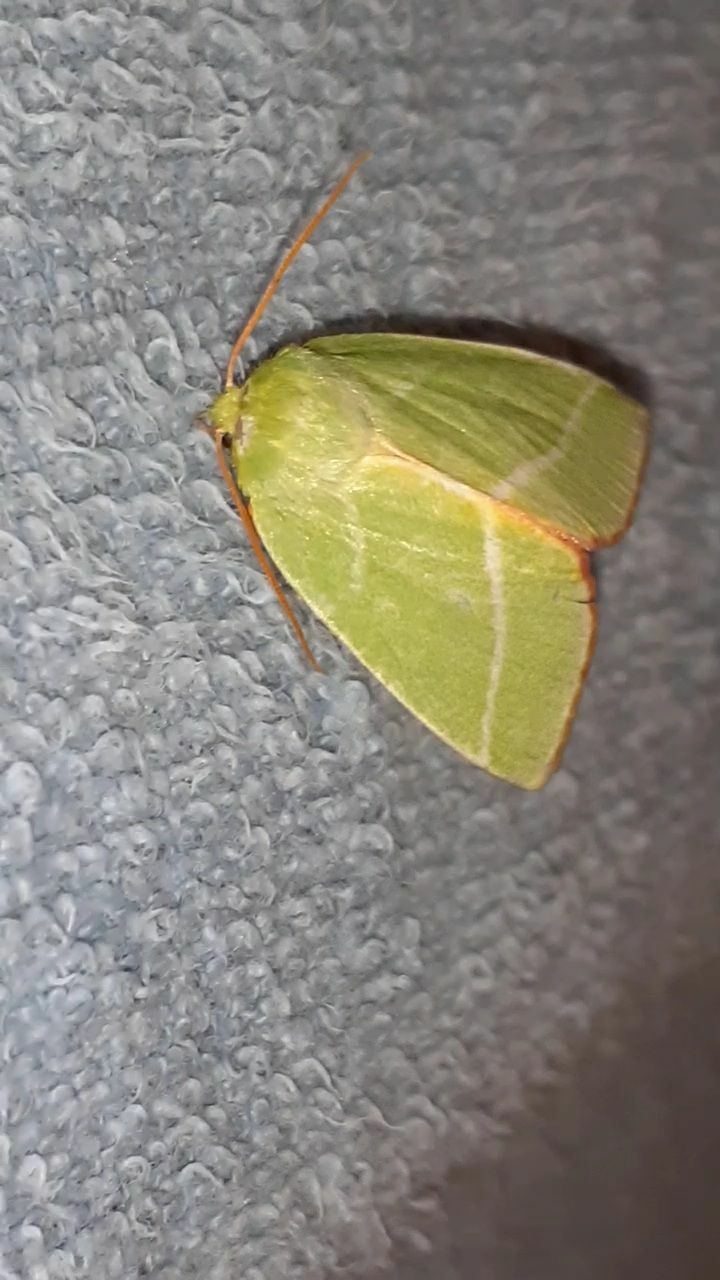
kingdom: Animalia
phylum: Arthropoda
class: Insecta
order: Lepidoptera
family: Nolidae
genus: Pseudoips
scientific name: Pseudoips prasinana
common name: Green silver-lines
